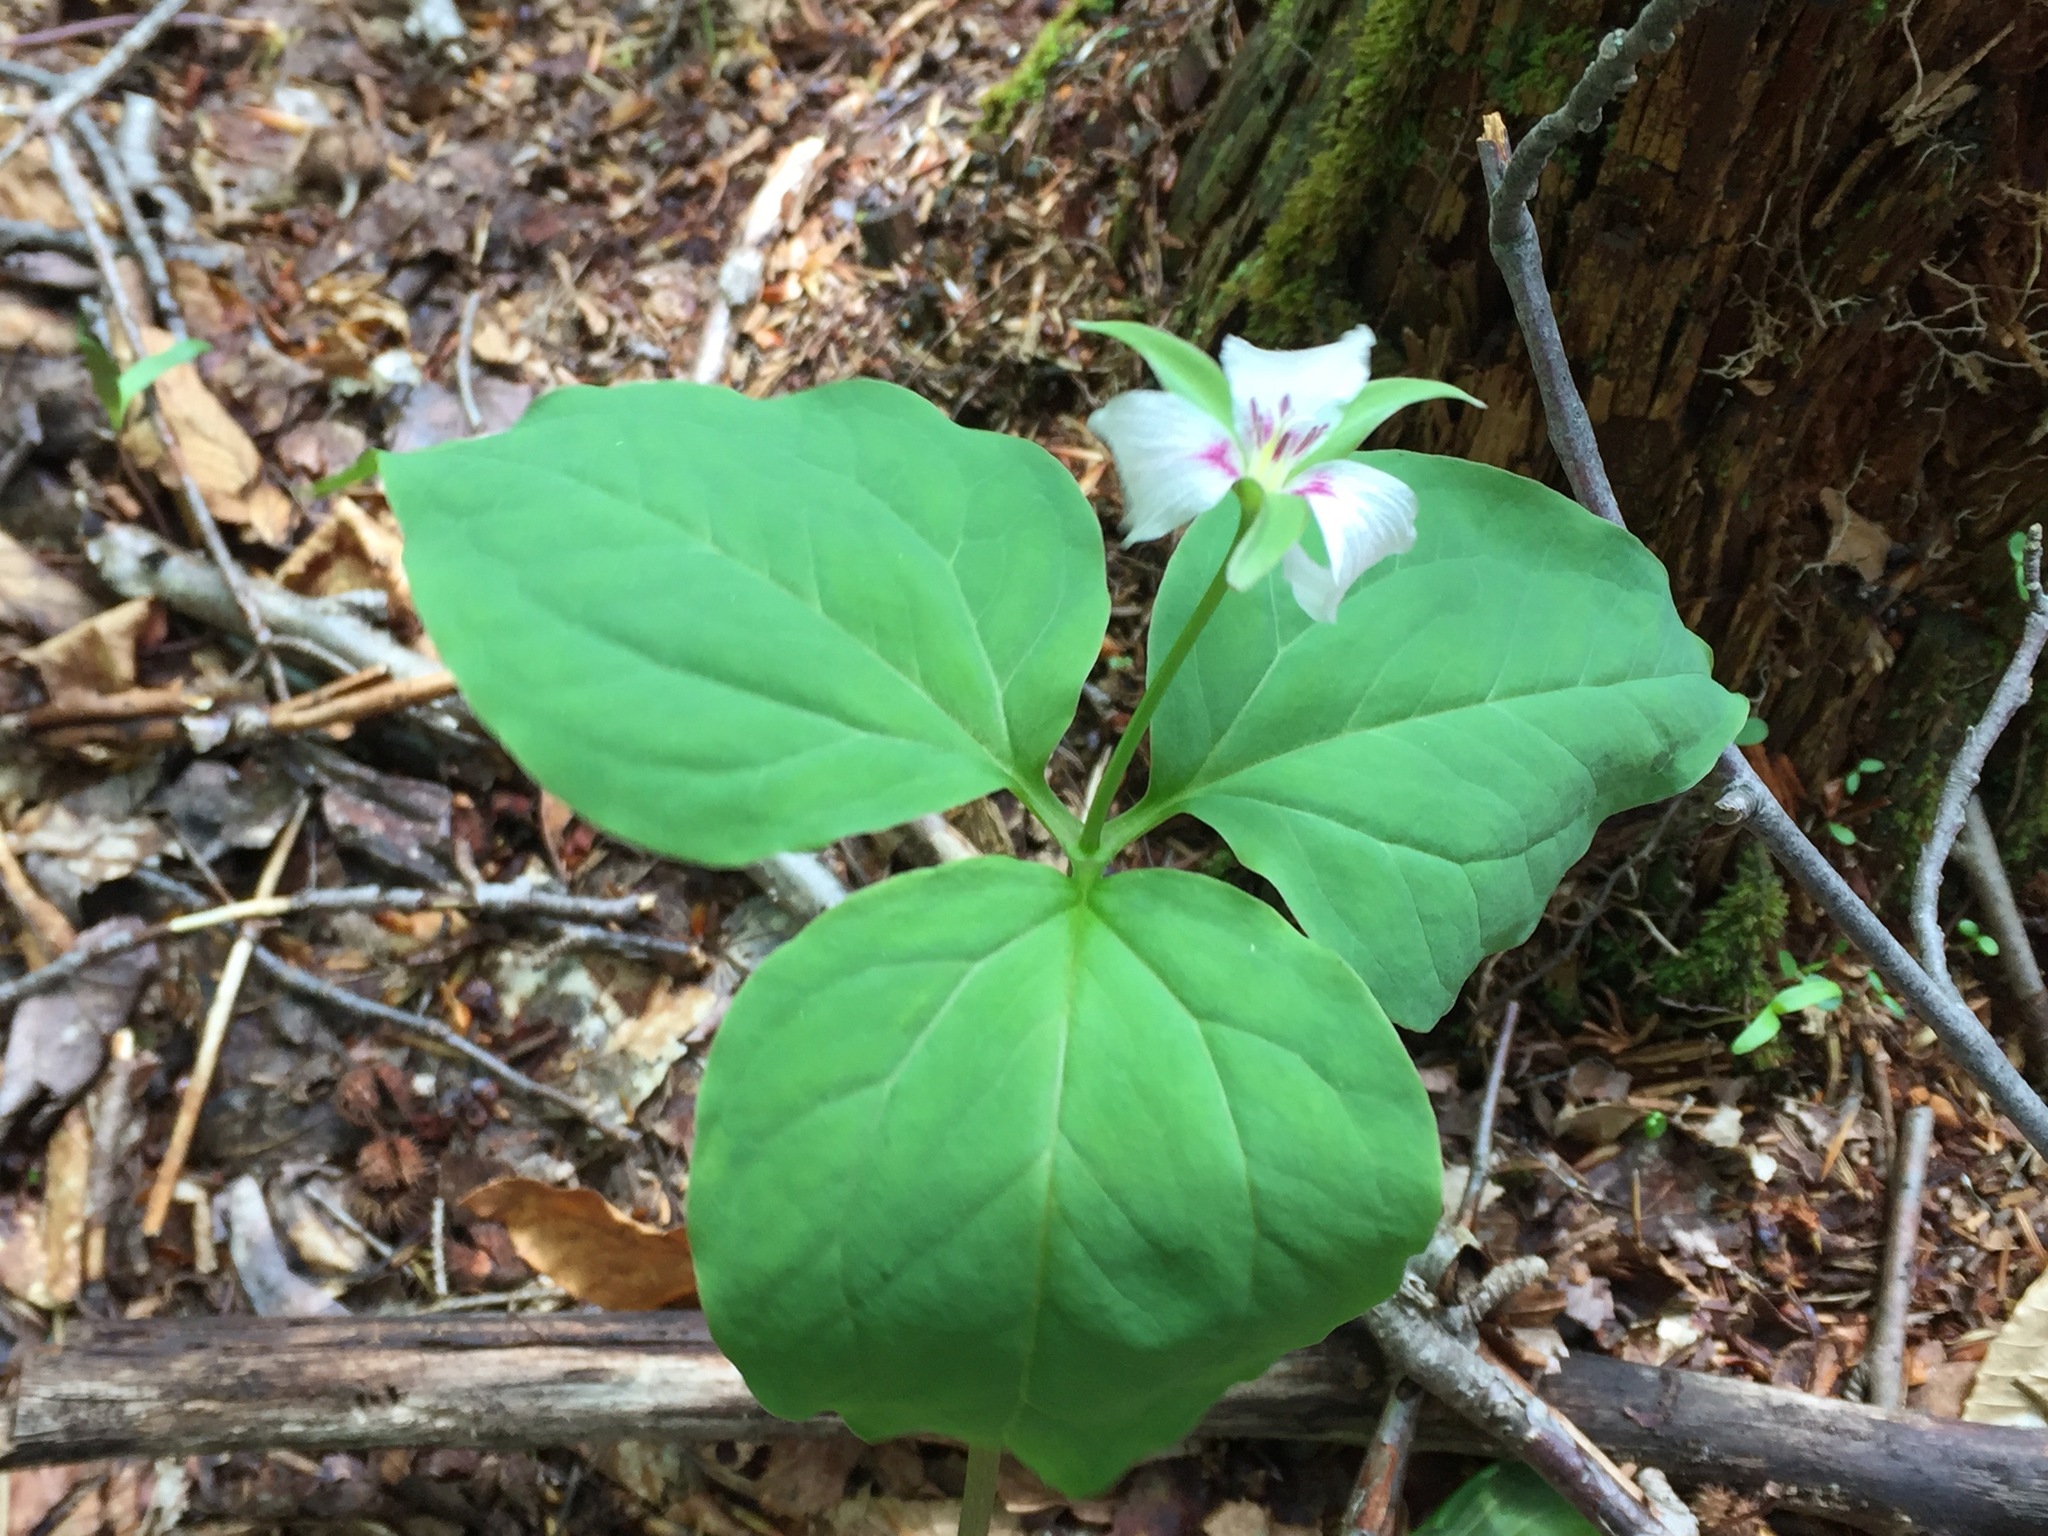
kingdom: Plantae
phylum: Tracheophyta
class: Liliopsida
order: Liliales
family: Melanthiaceae
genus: Trillium
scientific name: Trillium undulatum
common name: Paint trillium
